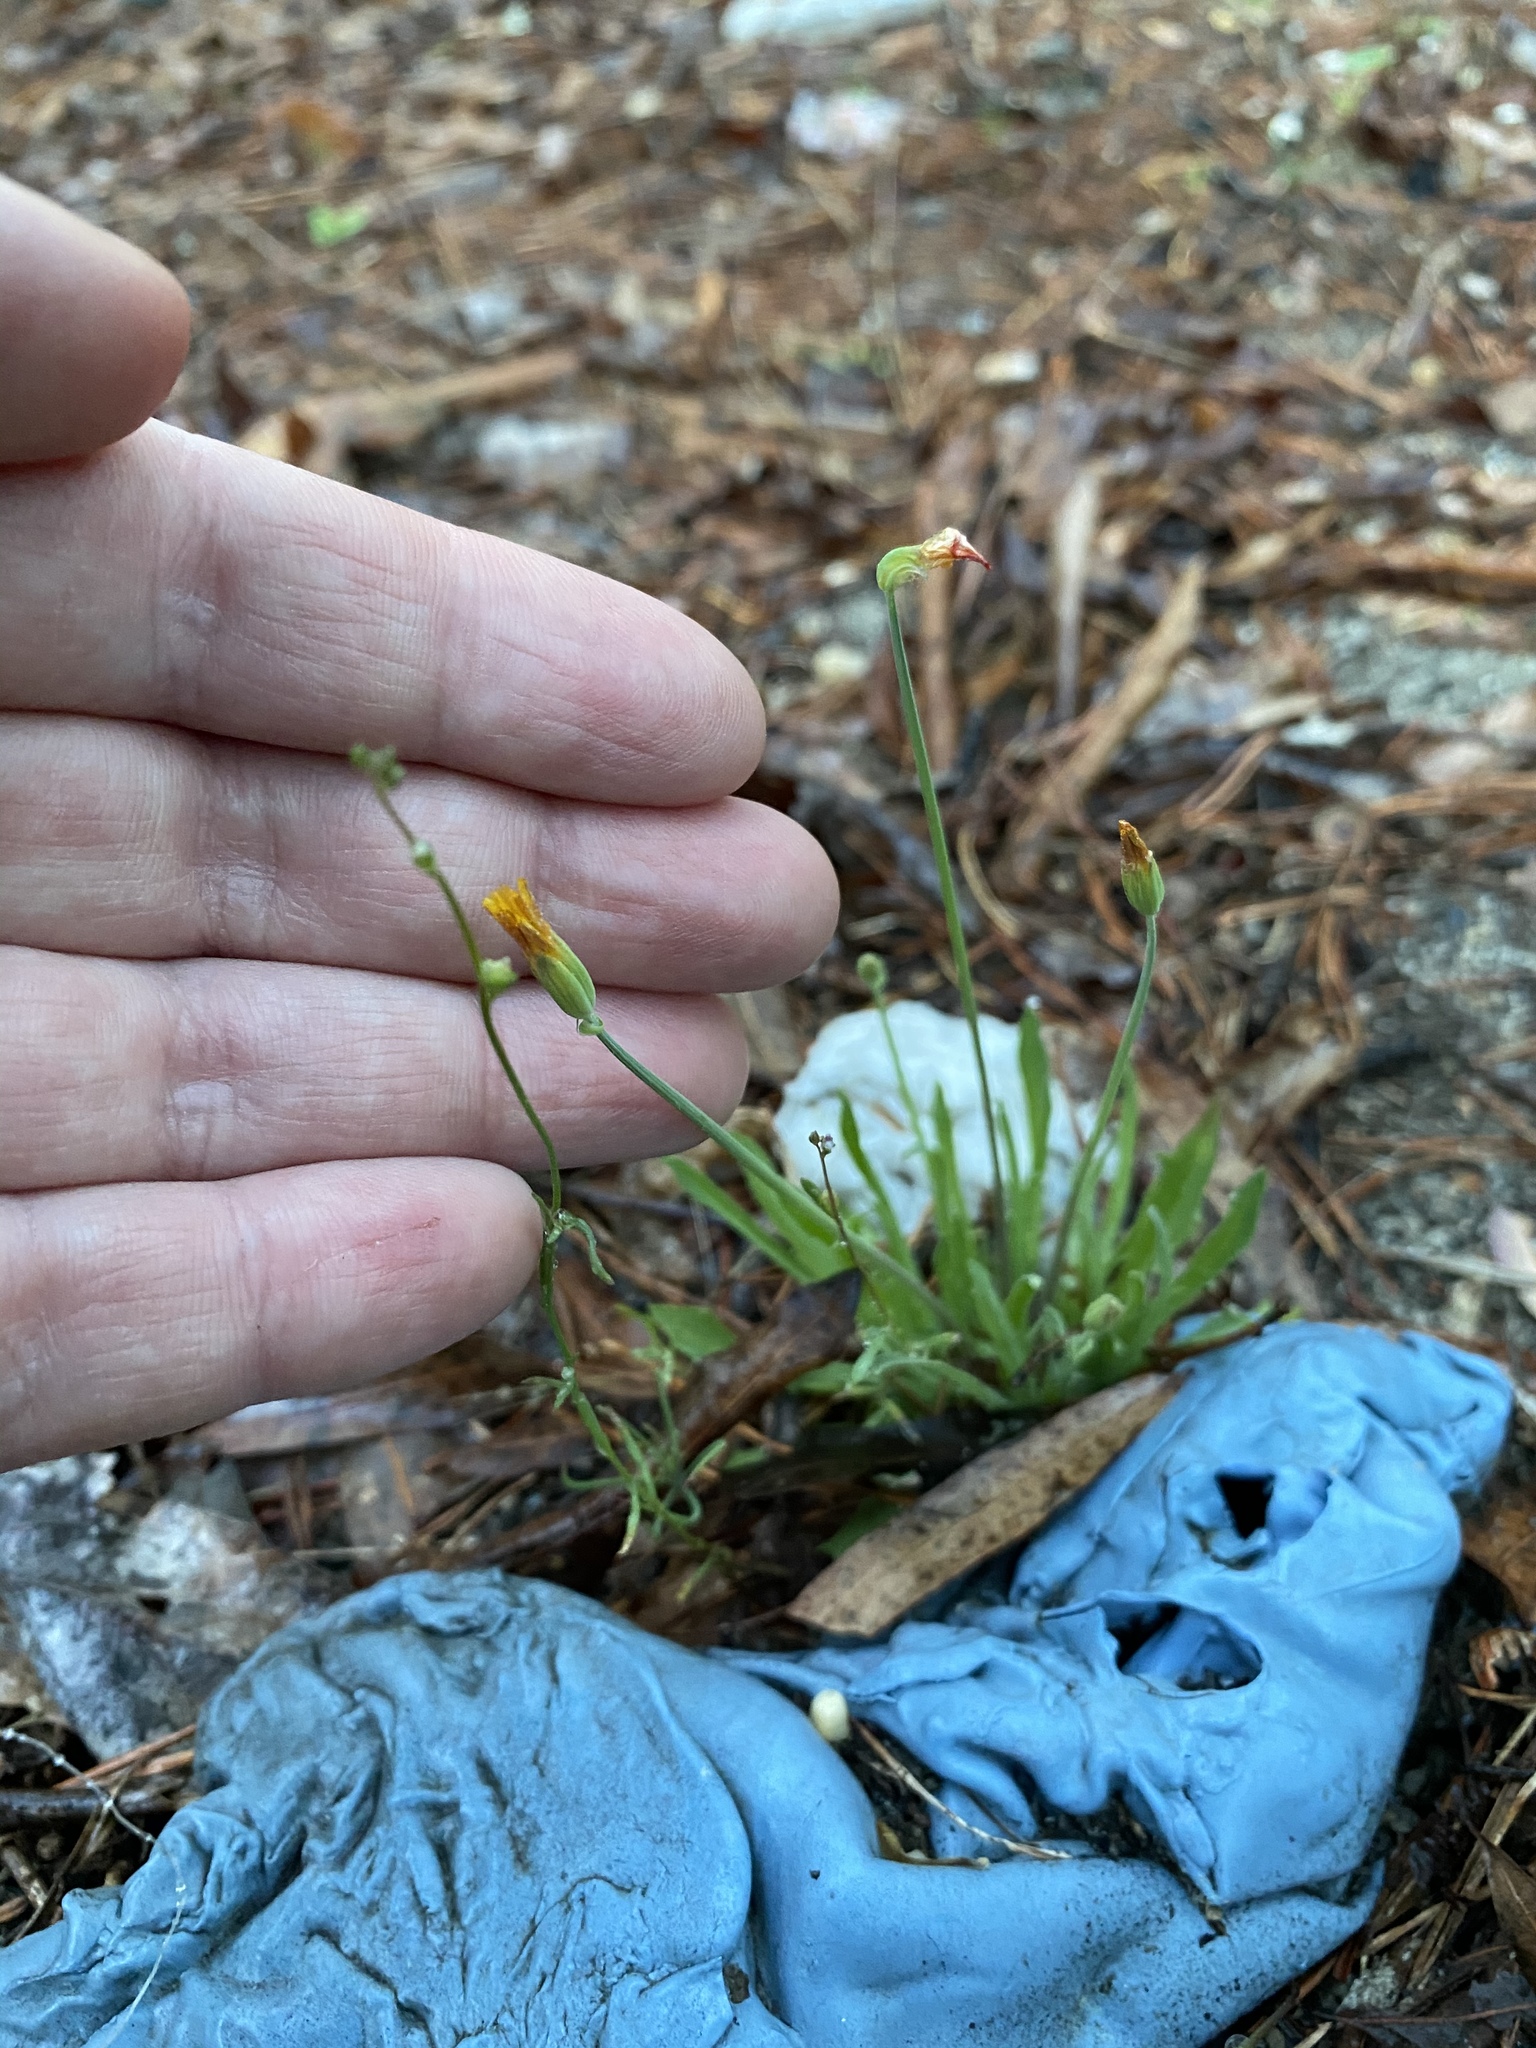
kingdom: Plantae
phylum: Tracheophyta
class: Magnoliopsida
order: Asterales
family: Asteraceae
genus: Krigia
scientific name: Krigia virginica
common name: Virginia dwarf-dandelion
